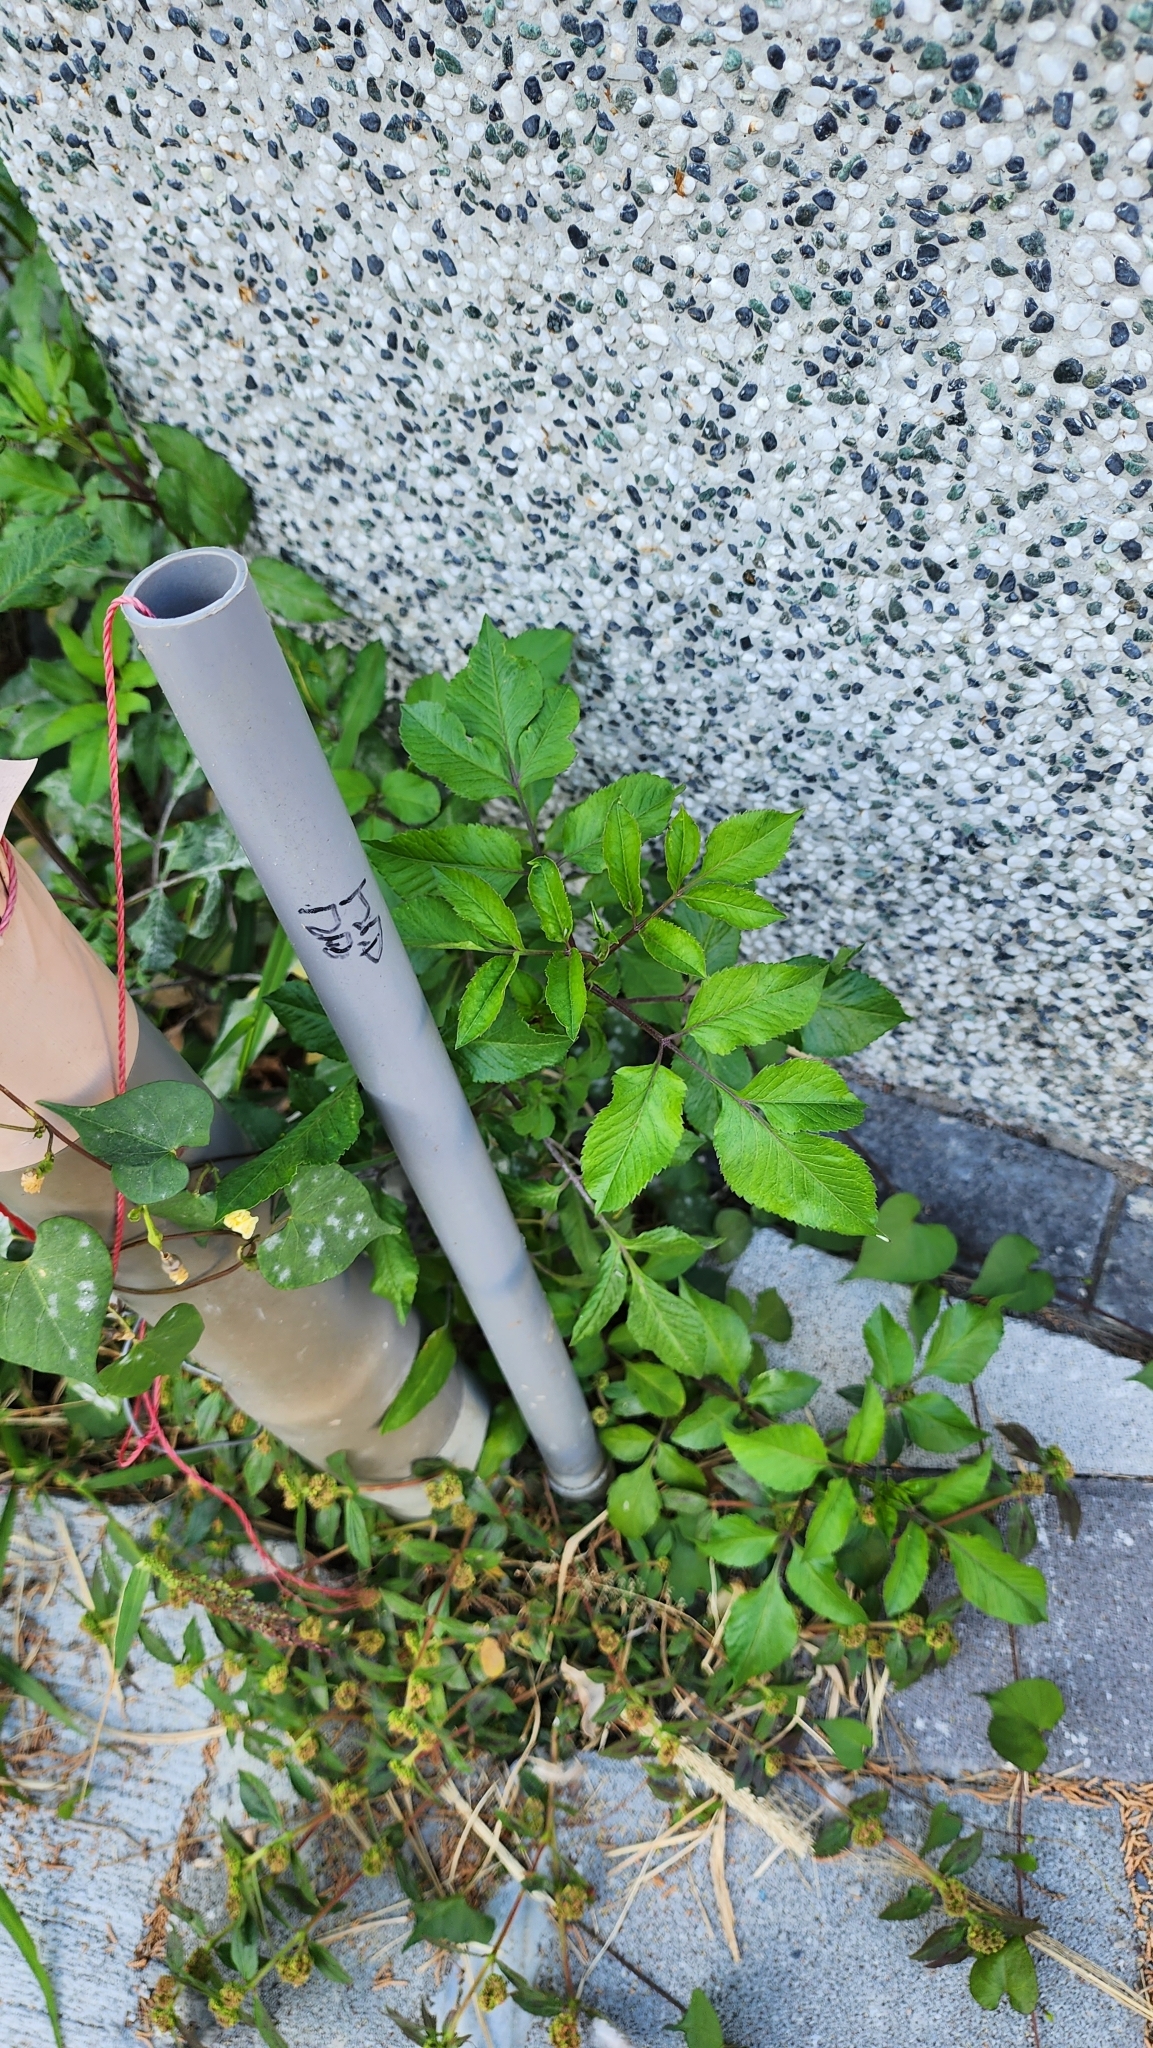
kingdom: Plantae
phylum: Tracheophyta
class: Magnoliopsida
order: Asterales
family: Asteraceae
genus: Bidens
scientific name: Bidens alba
